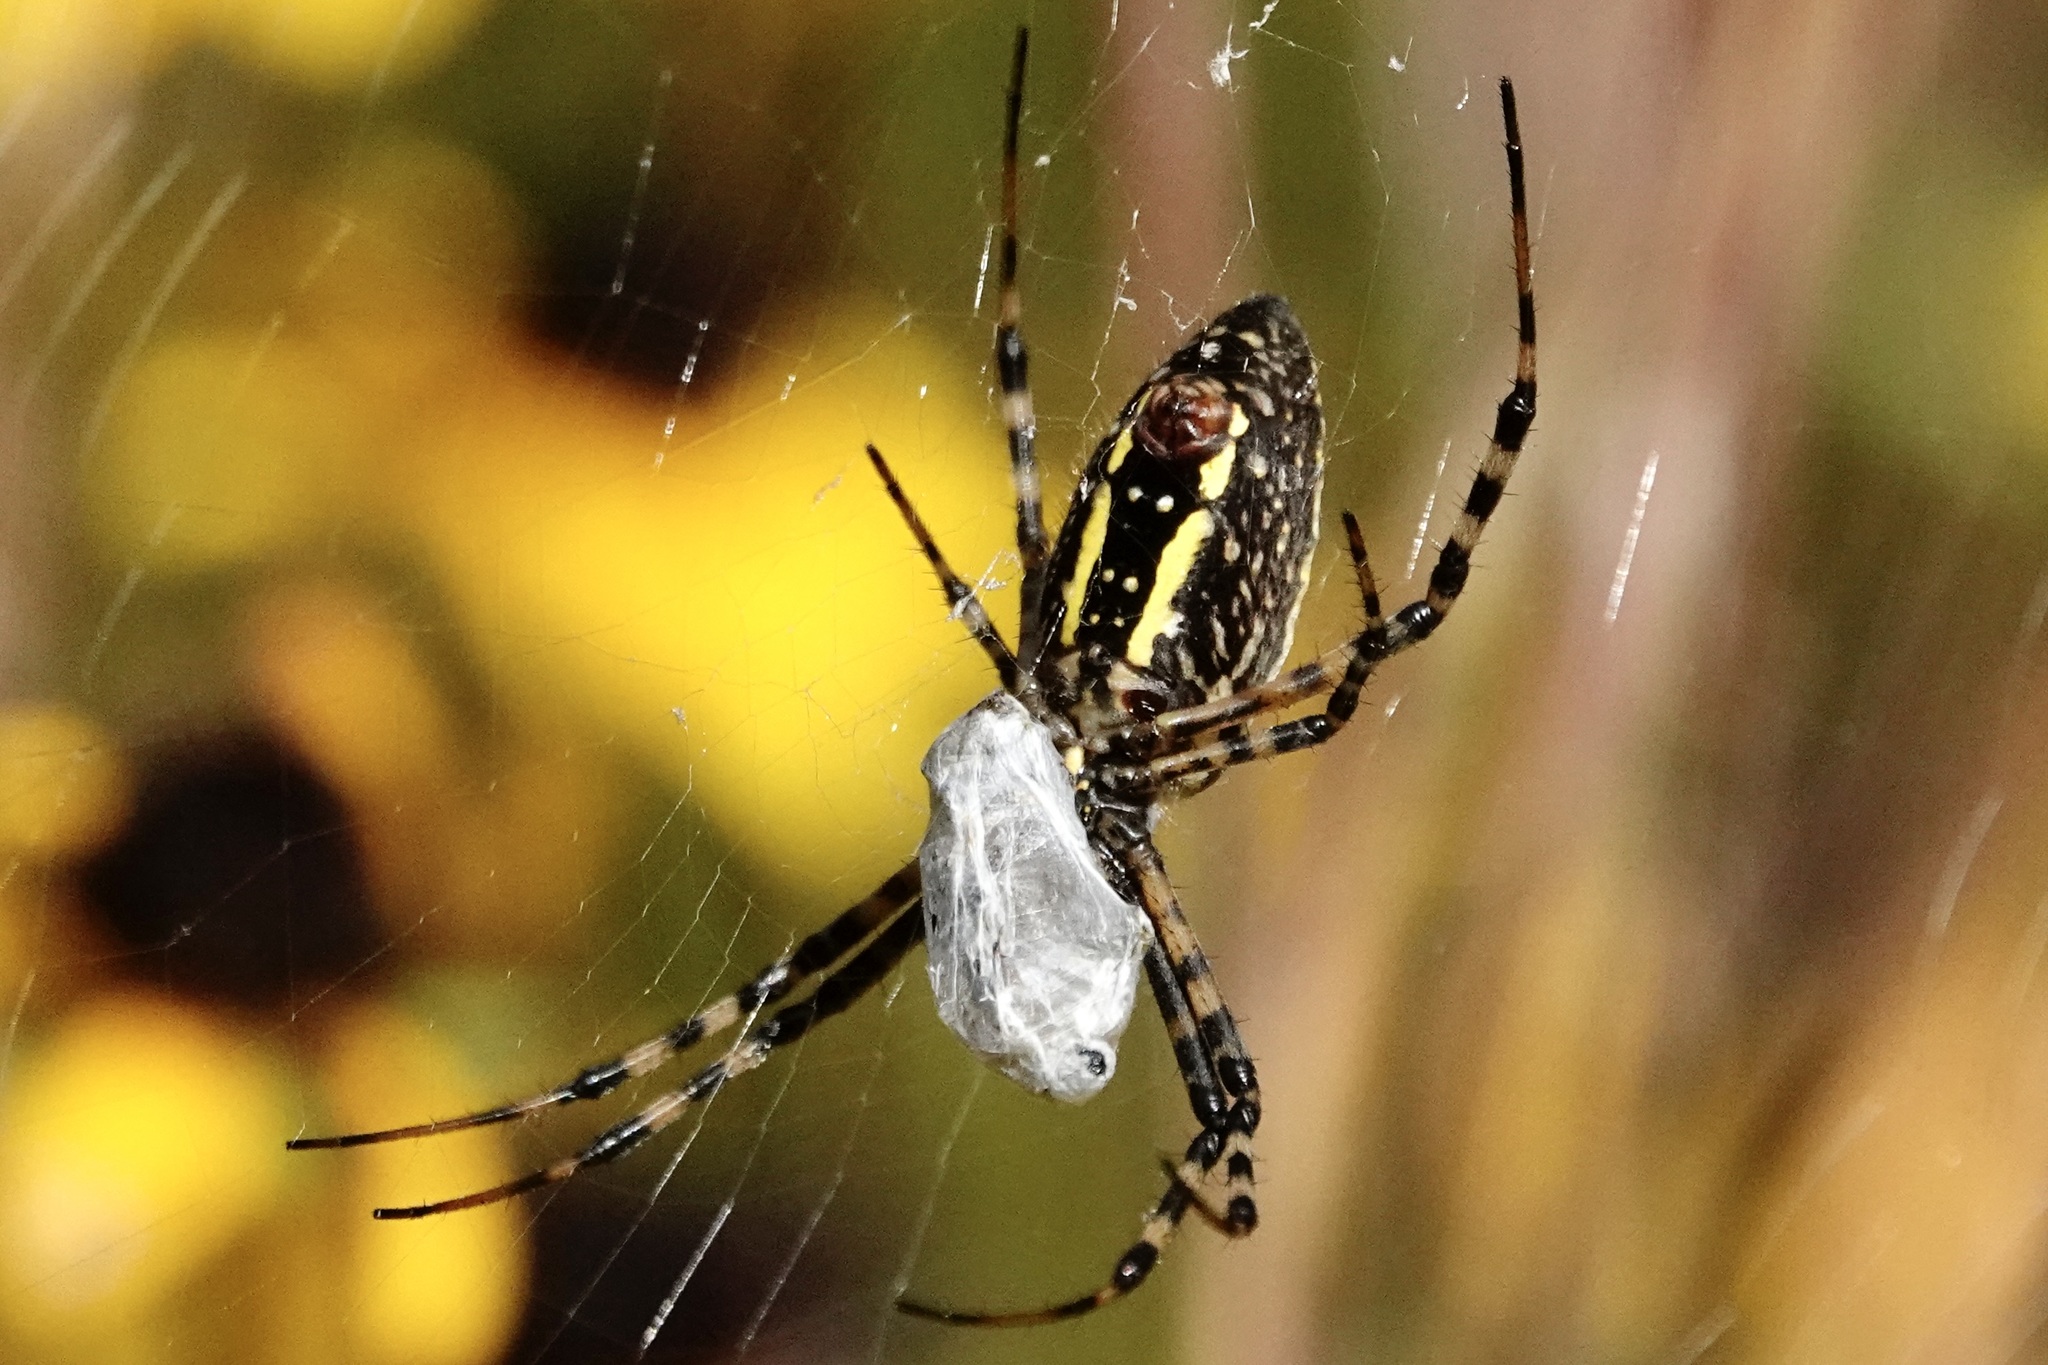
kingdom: Animalia
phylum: Arthropoda
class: Arachnida
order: Araneae
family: Araneidae
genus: Argiope
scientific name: Argiope trifasciata
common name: Banded garden spider
